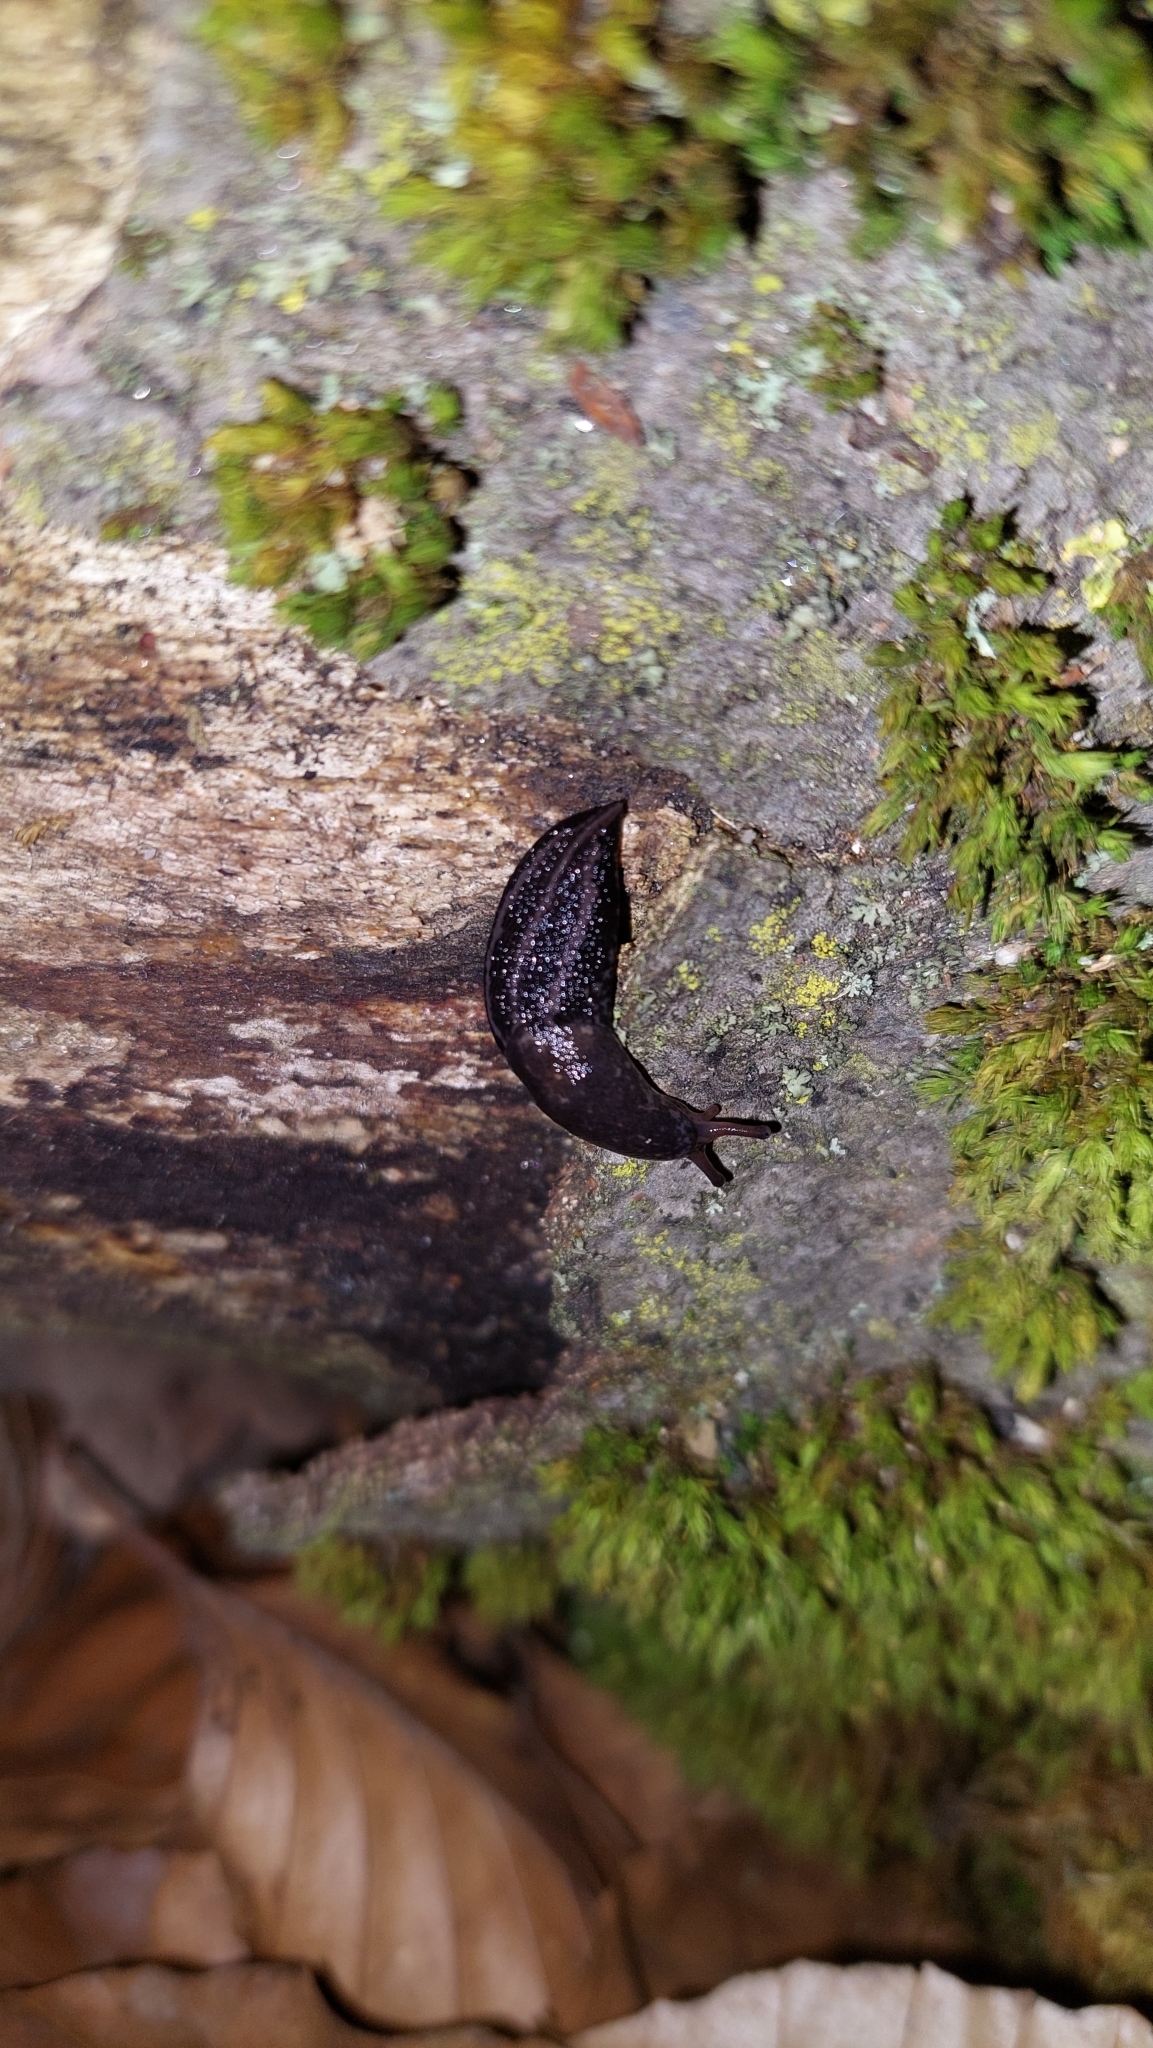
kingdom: Animalia
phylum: Mollusca
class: Gastropoda
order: Stylommatophora
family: Limacidae
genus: Limax
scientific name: Limax maximus
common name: Great grey slug
